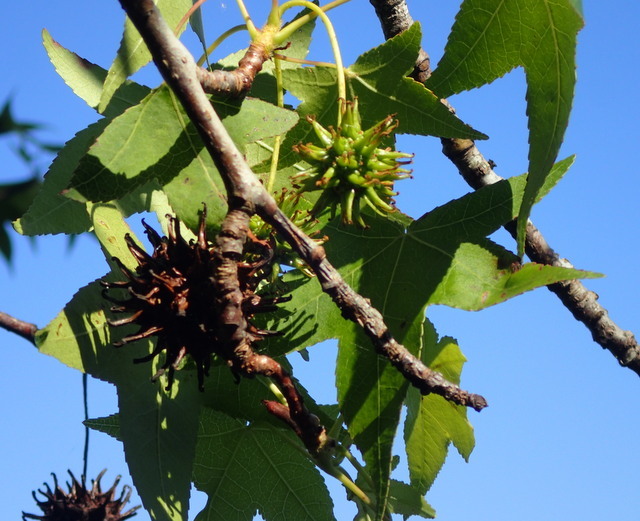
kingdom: Plantae
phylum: Tracheophyta
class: Magnoliopsida
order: Saxifragales
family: Altingiaceae
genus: Liquidambar
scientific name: Liquidambar styraciflua
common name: Sweet gum
